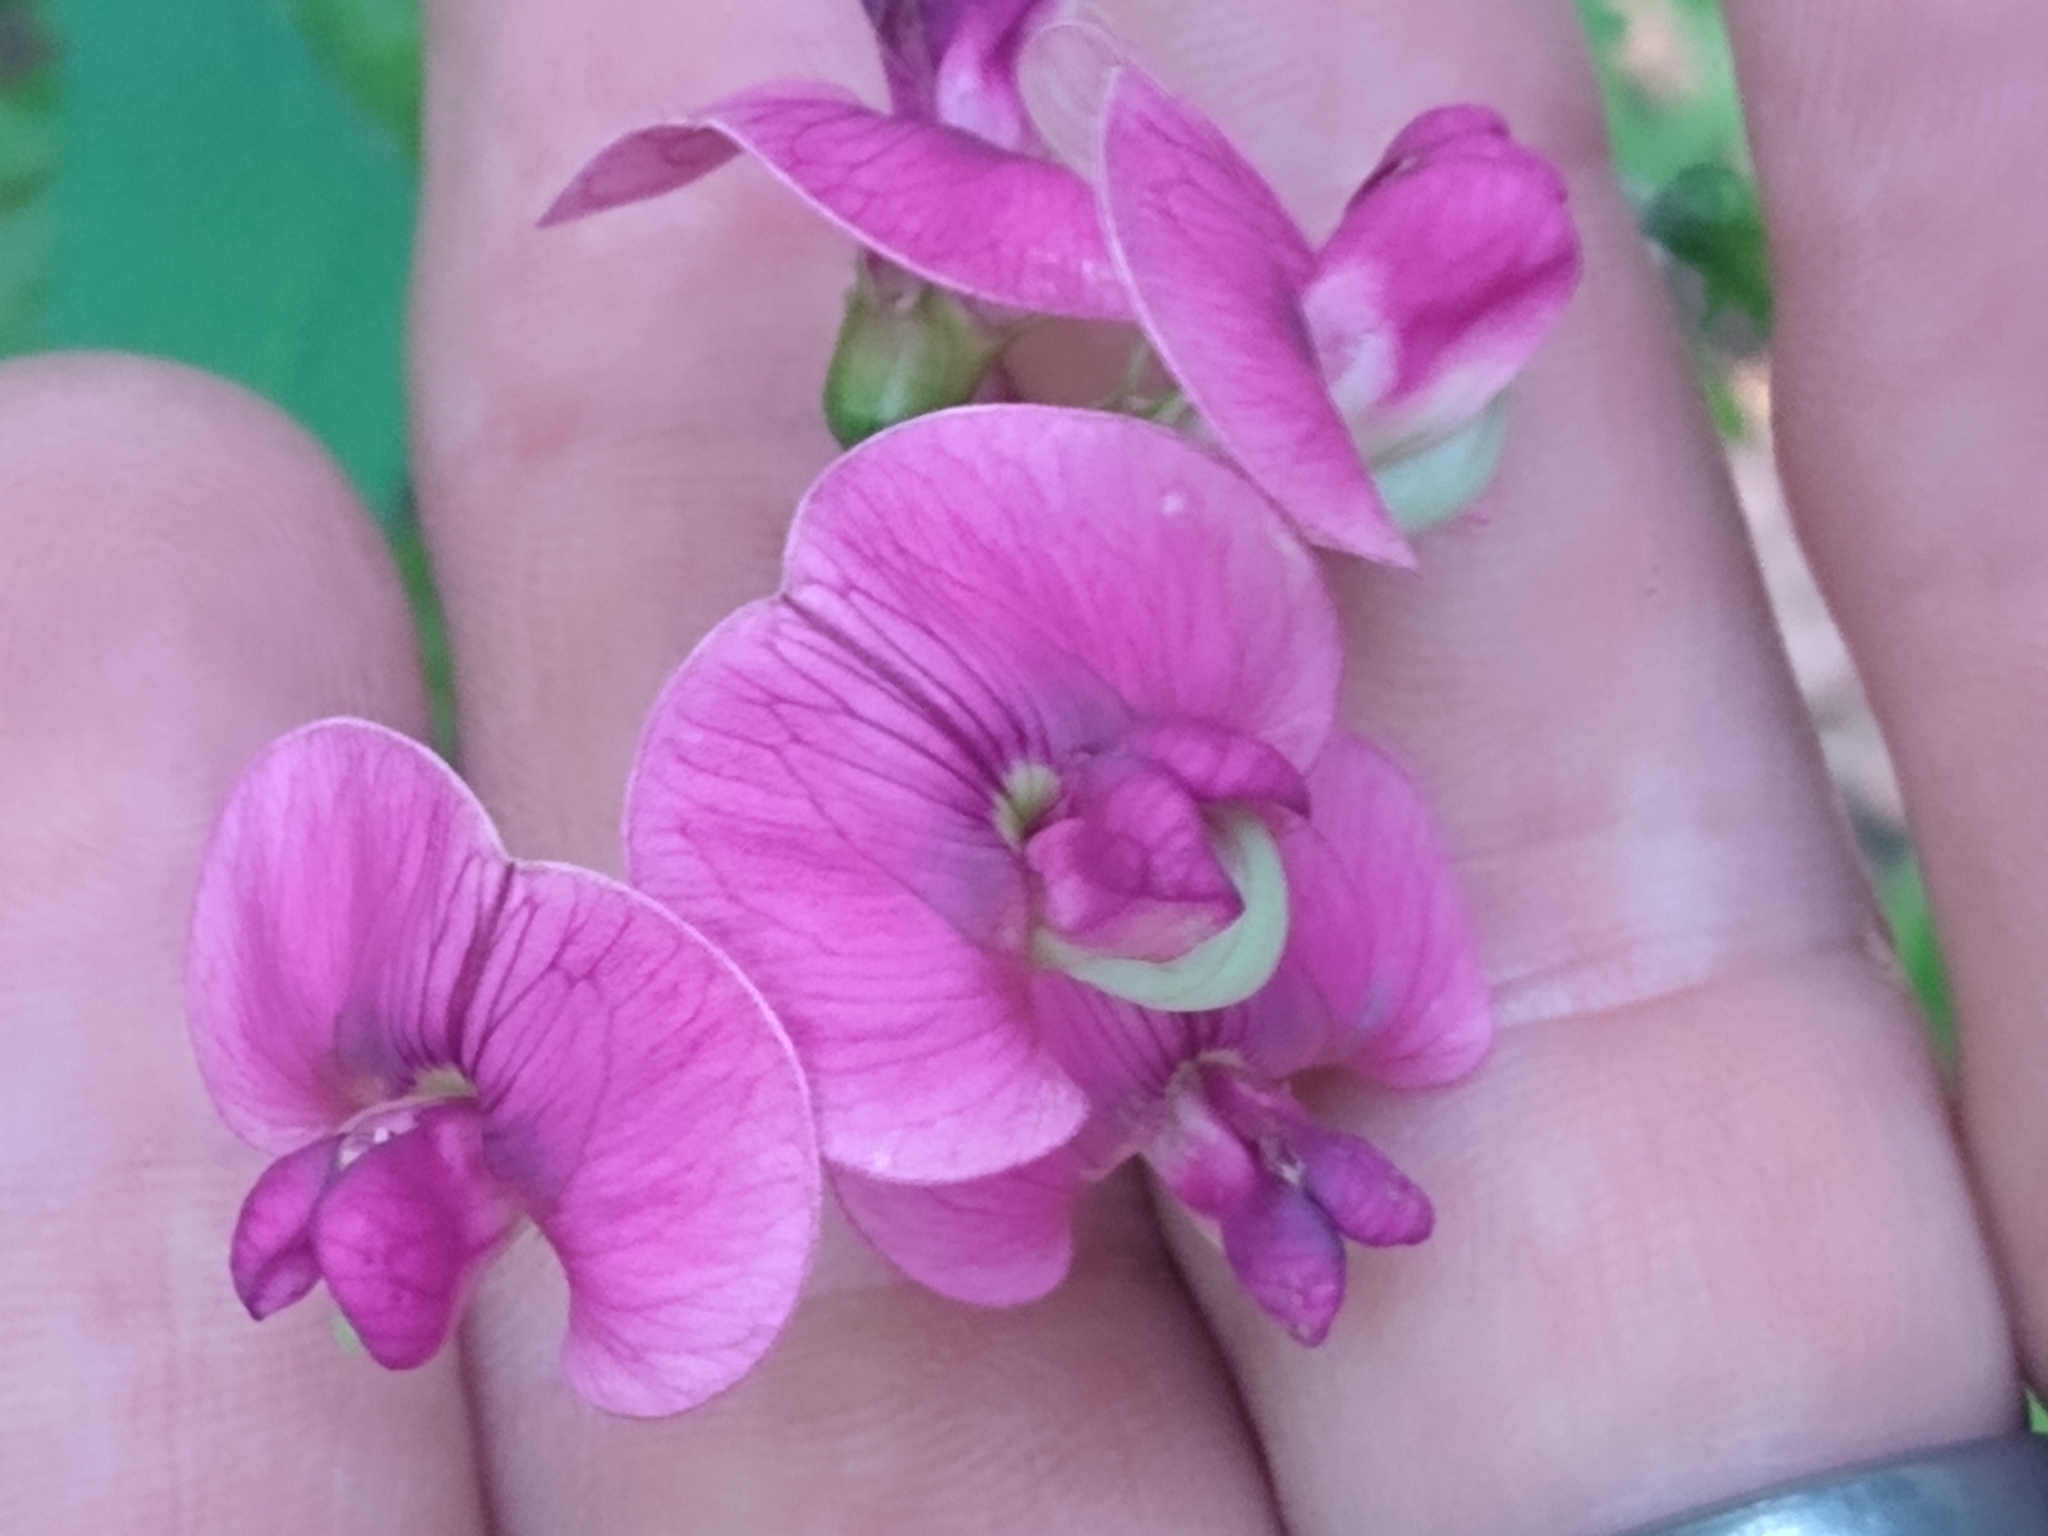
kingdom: Plantae
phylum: Tracheophyta
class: Magnoliopsida
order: Fabales
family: Fabaceae
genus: Lathyrus
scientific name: Lathyrus sylvestris
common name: Flat pea
